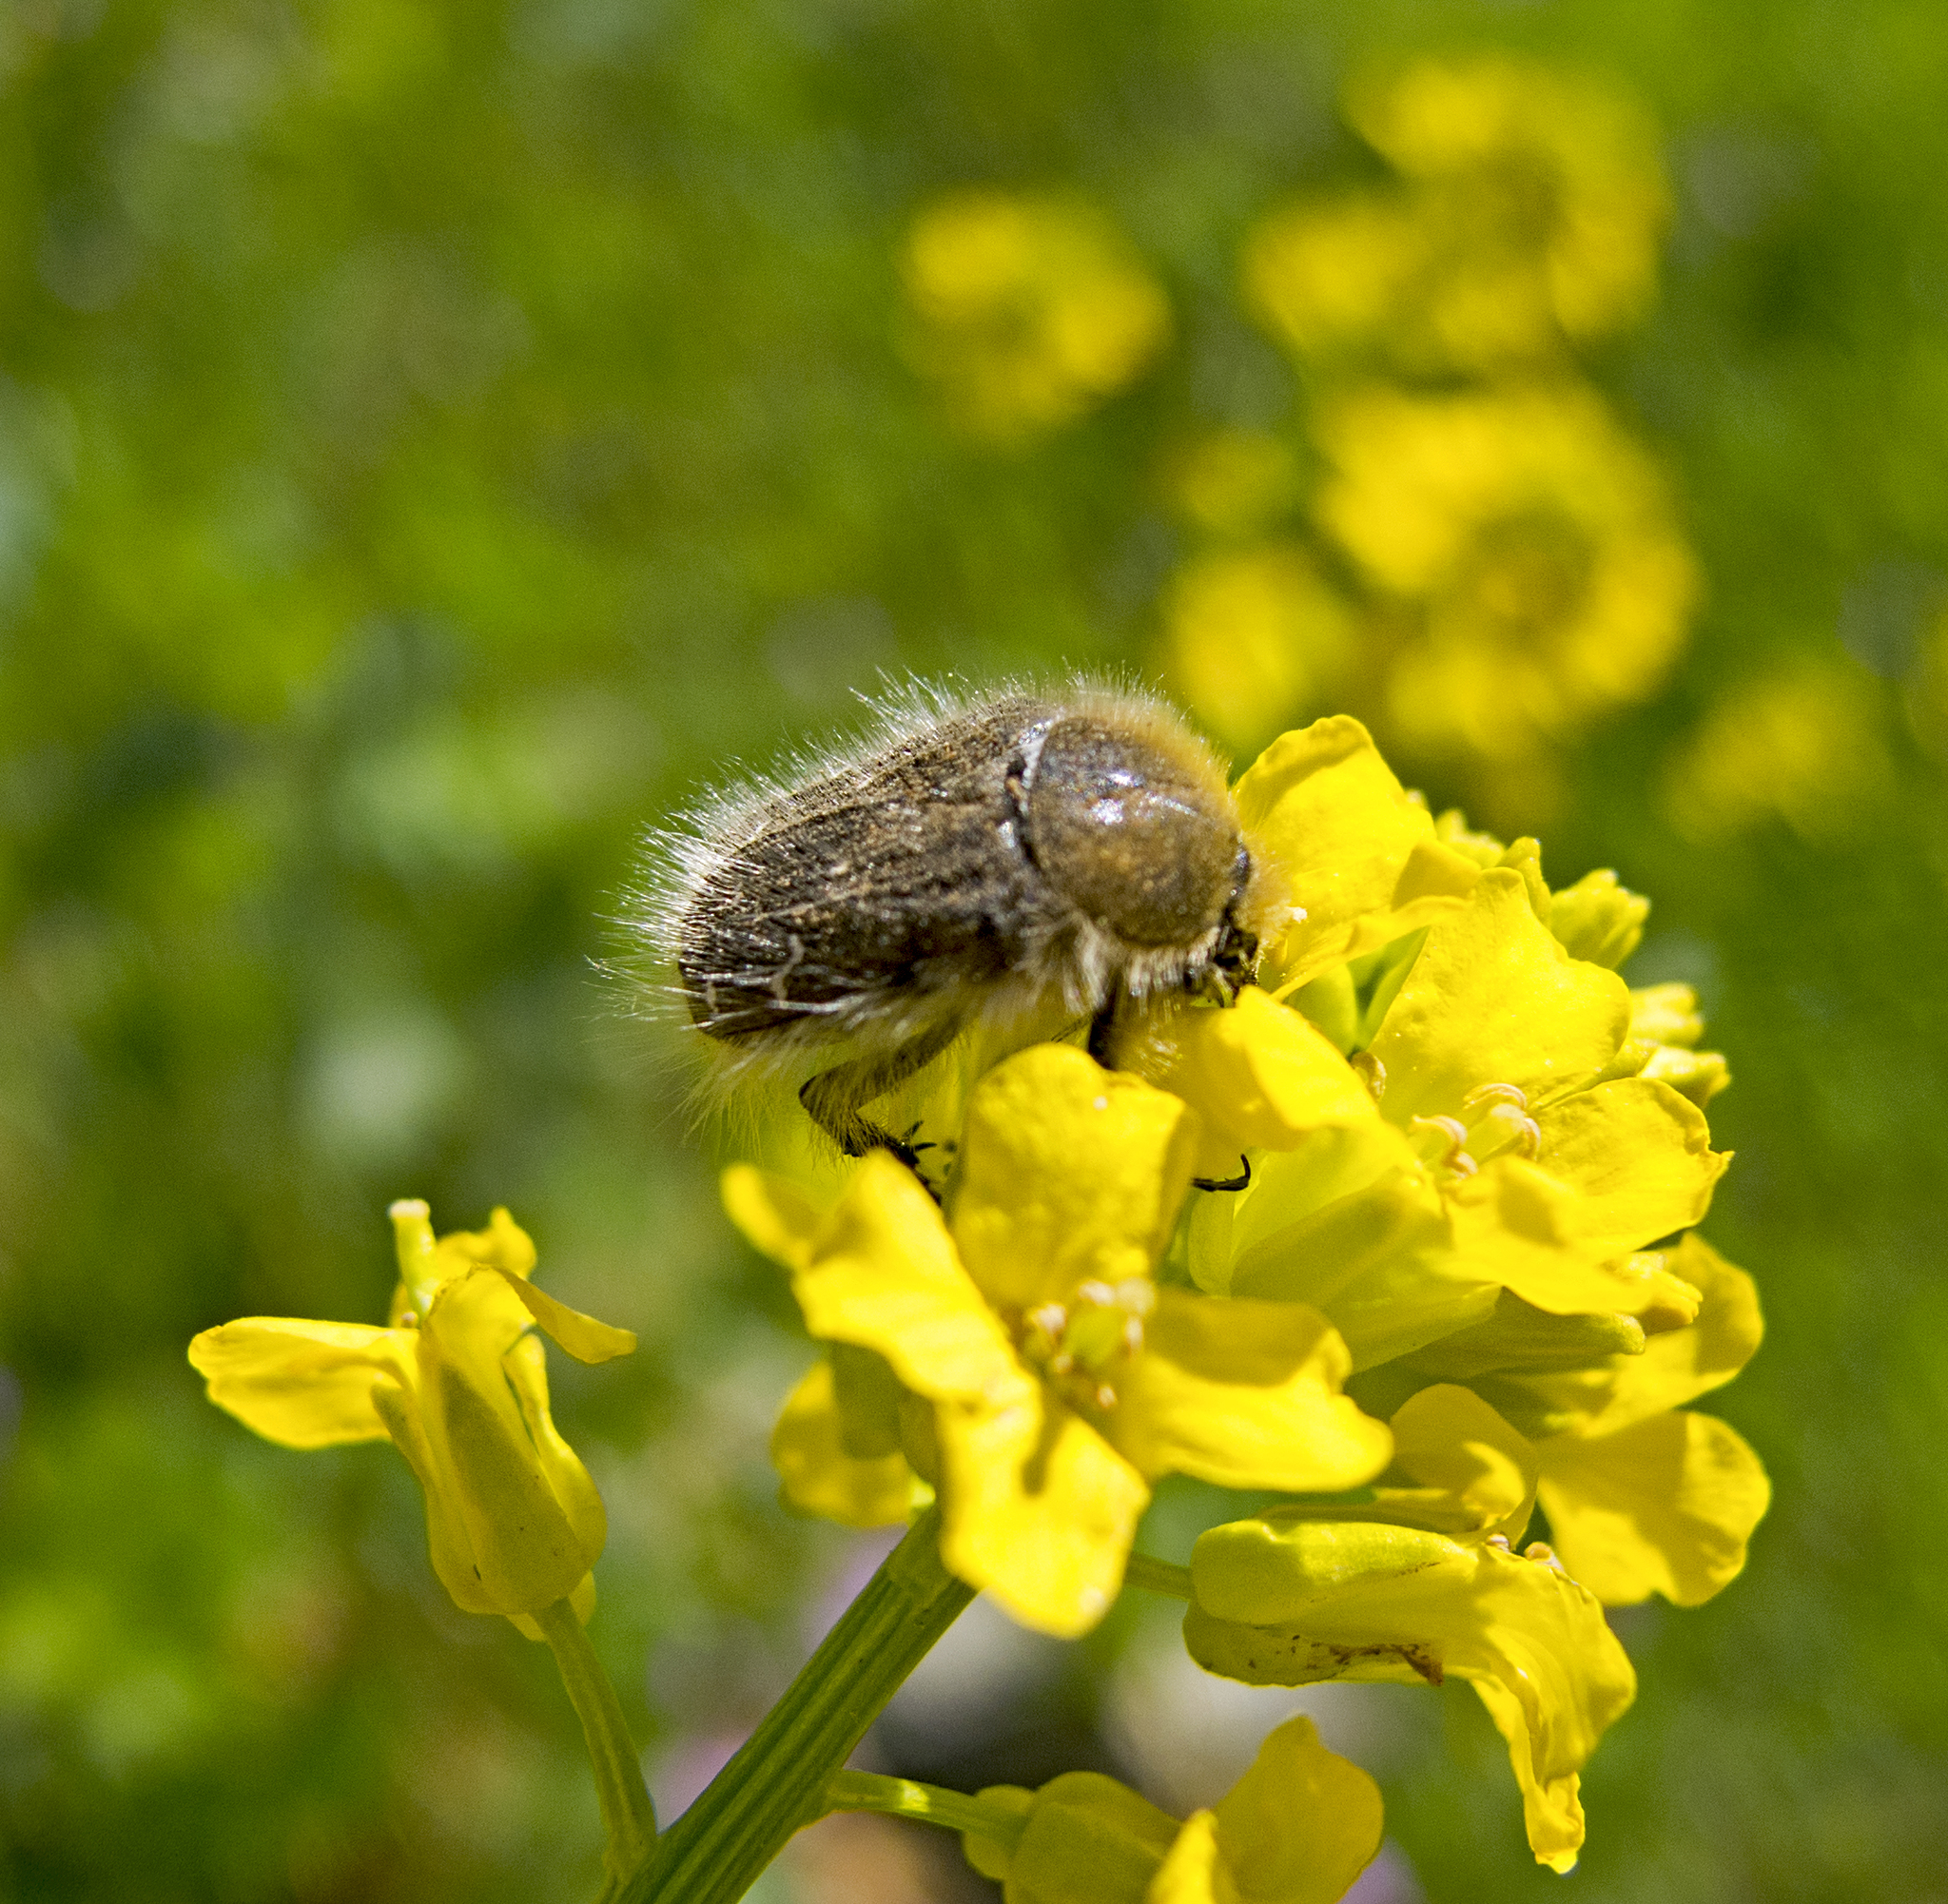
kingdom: Animalia
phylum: Arthropoda
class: Insecta
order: Coleoptera
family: Scarabaeidae
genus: Tropinota
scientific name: Tropinota hirta
